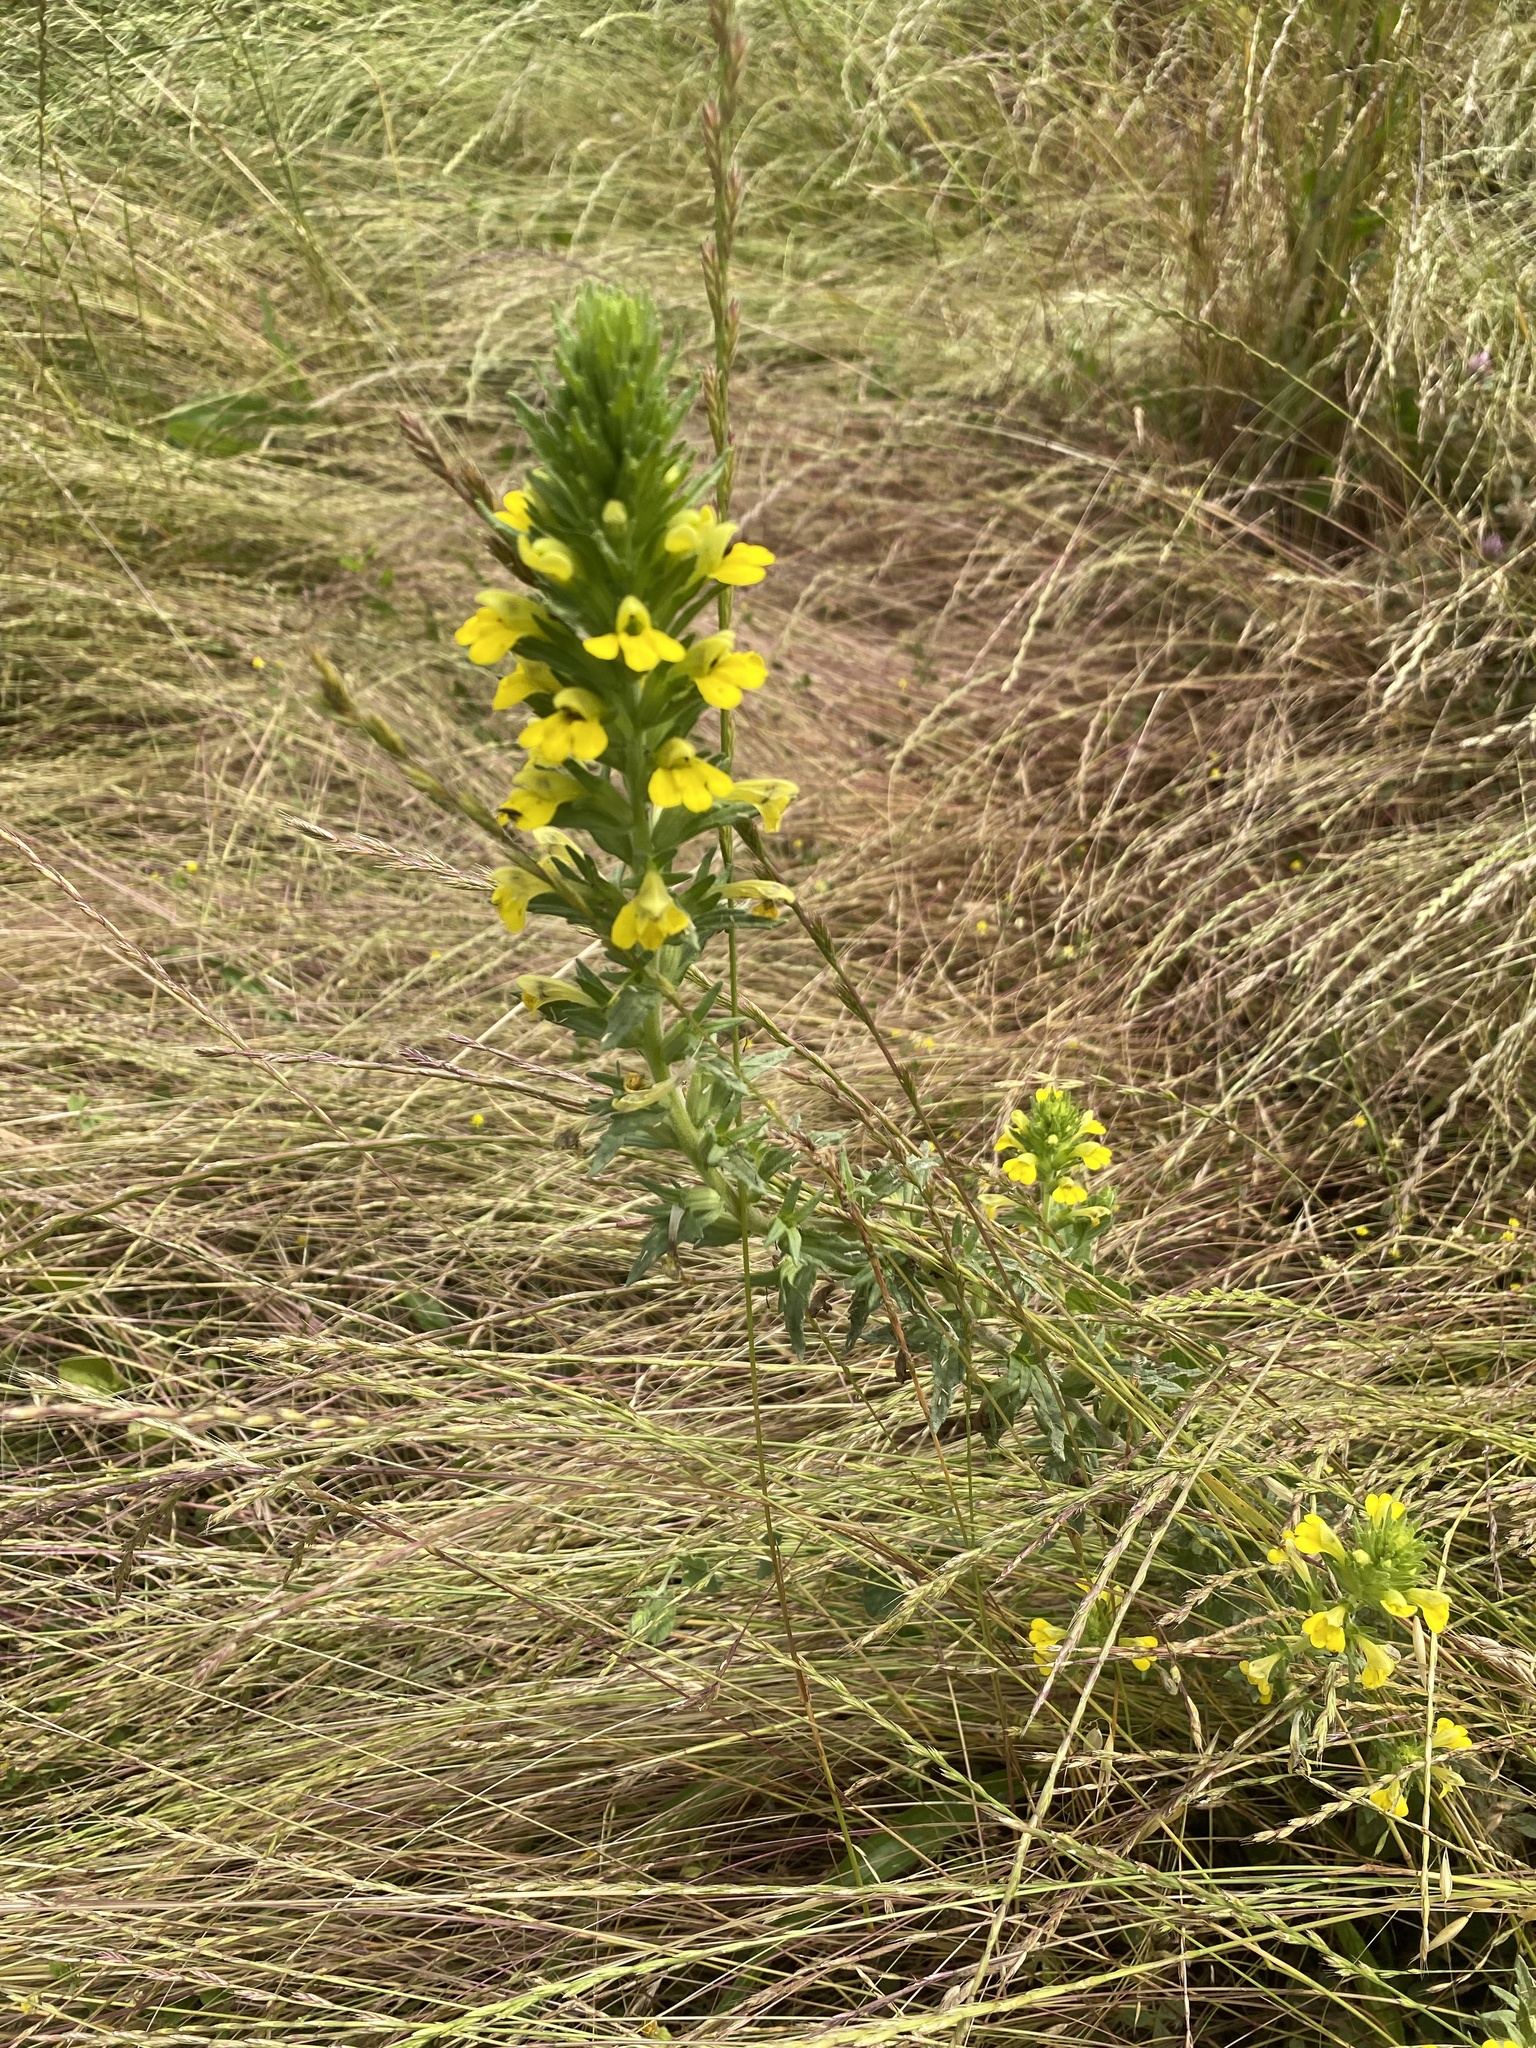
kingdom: Plantae
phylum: Tracheophyta
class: Magnoliopsida
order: Lamiales
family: Orobanchaceae
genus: Bellardia
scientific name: Bellardia viscosa
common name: Sticky parentucellia
